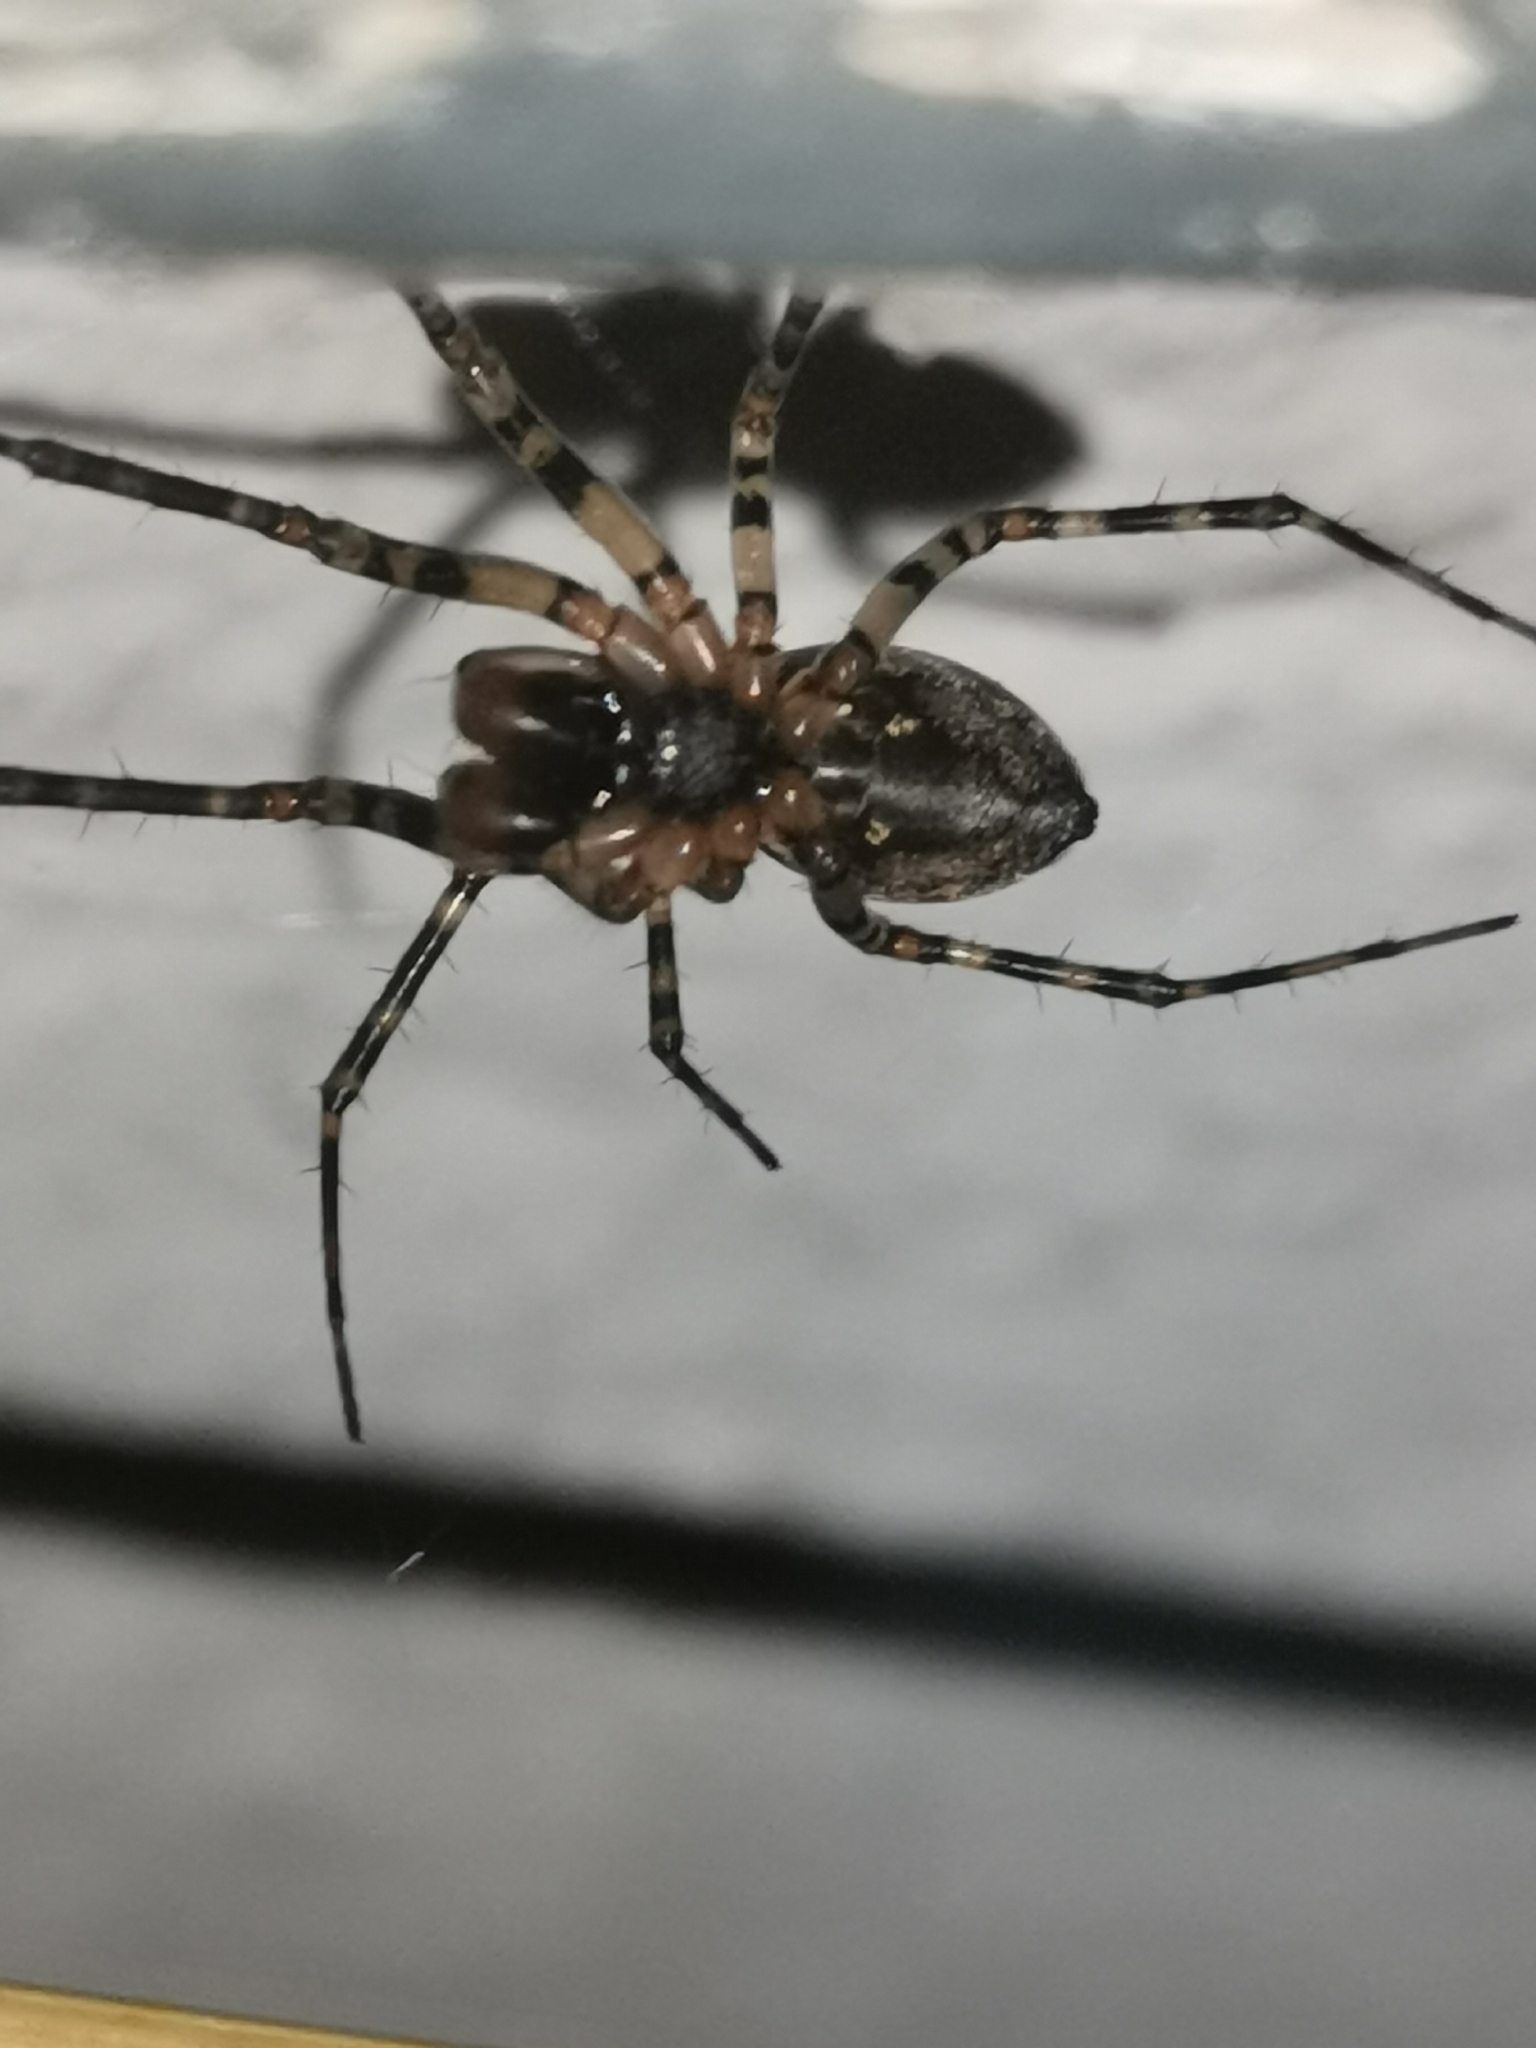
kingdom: Animalia
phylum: Arthropoda
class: Arachnida
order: Araneae
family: Linyphiidae
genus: Neriene
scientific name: Neriene montana
